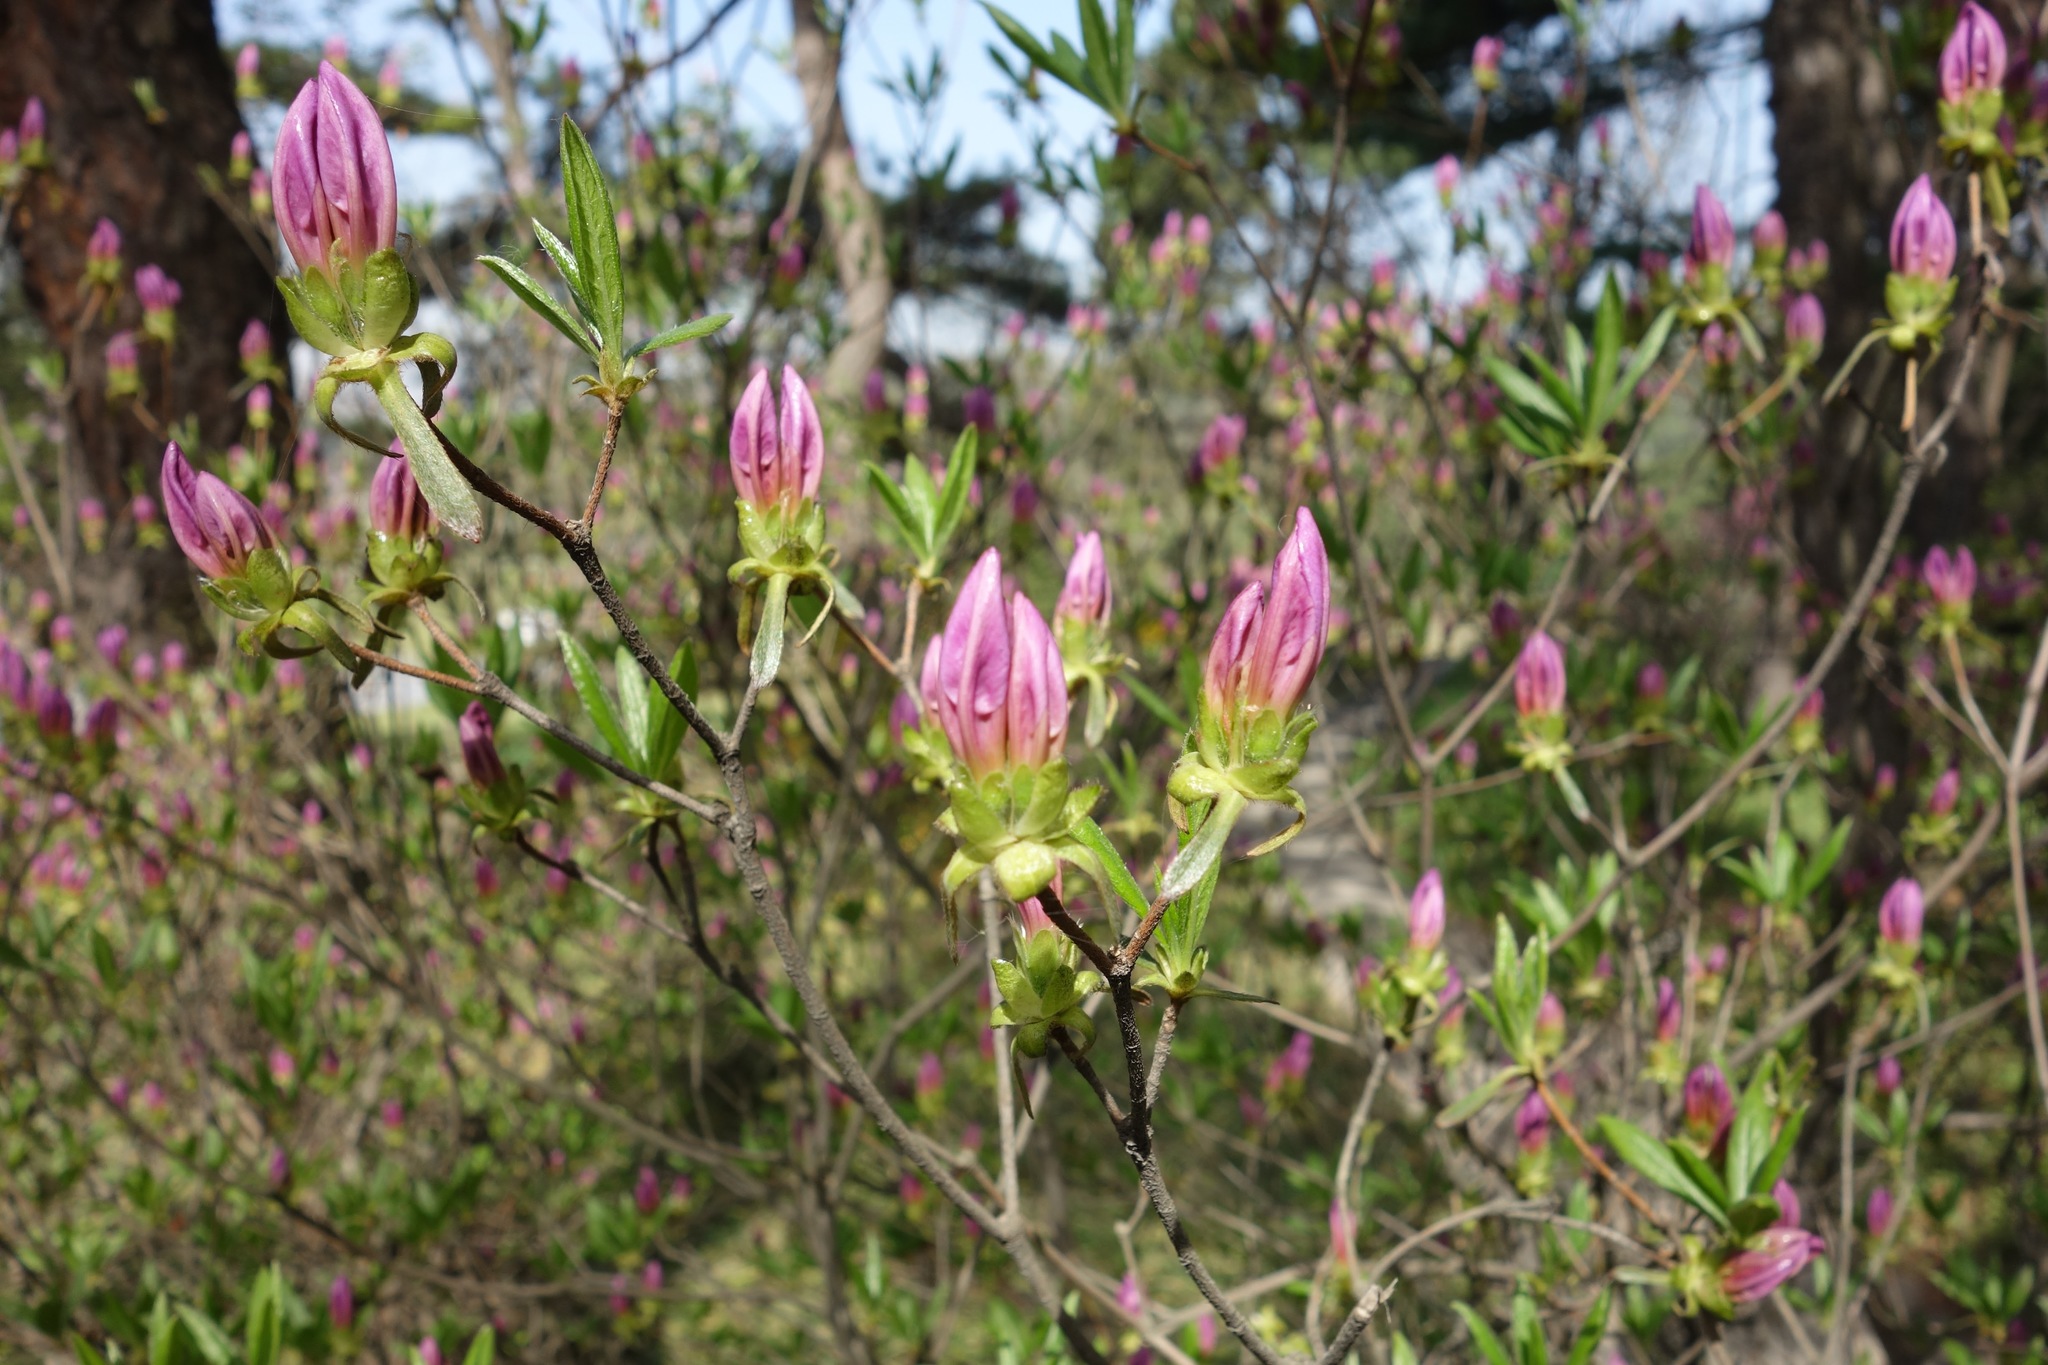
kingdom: Plantae
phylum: Tracheophyta
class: Magnoliopsida
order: Ericales
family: Ericaceae
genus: Rhododendron
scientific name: Rhododendron yedoense
